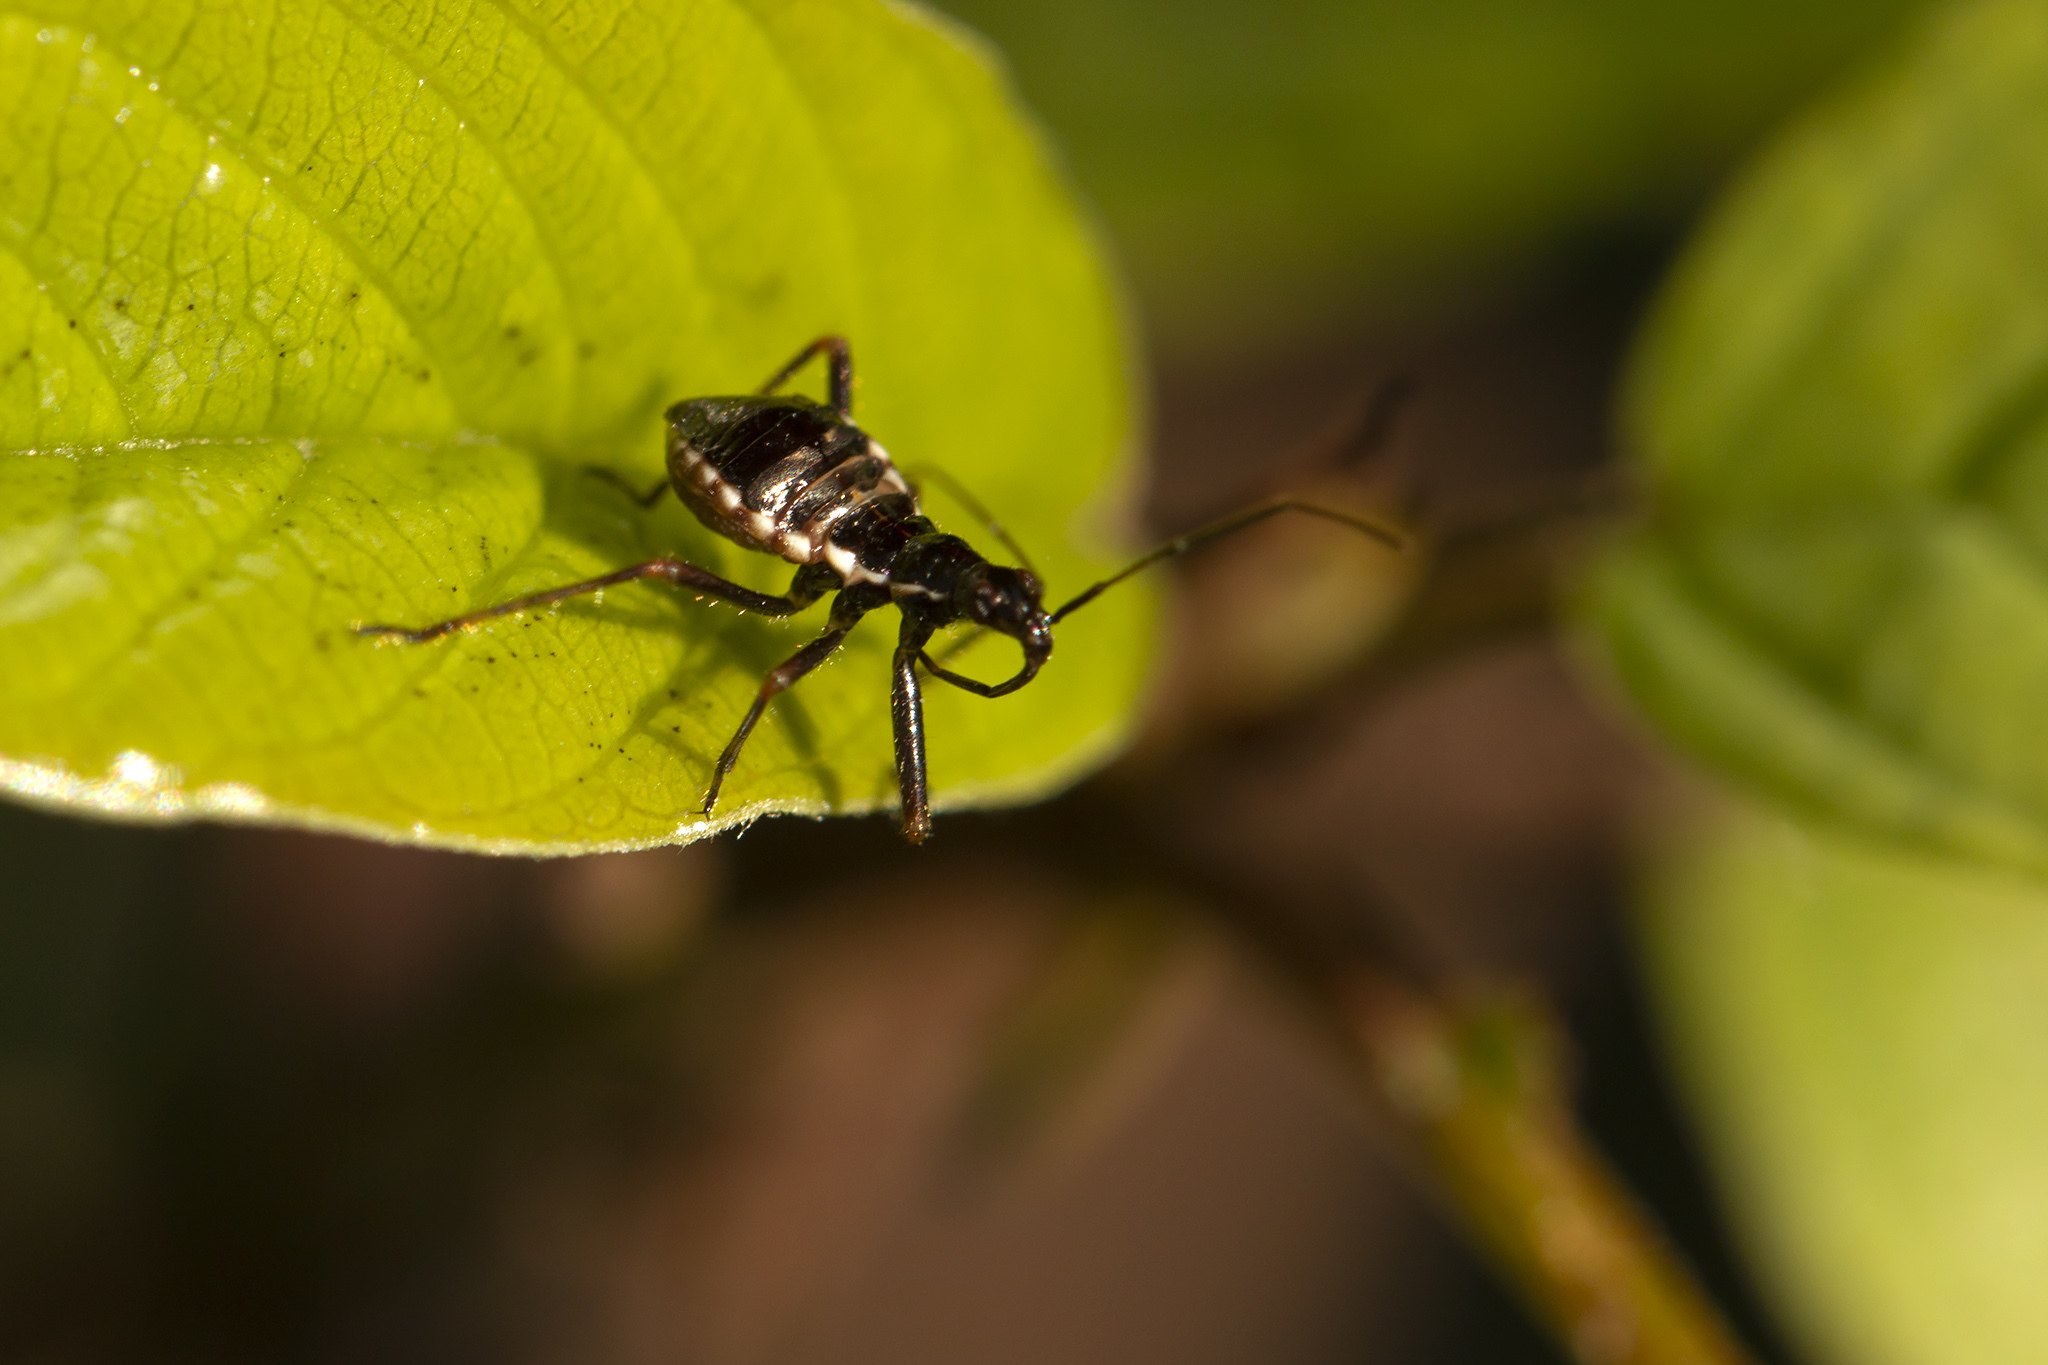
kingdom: Animalia
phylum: Arthropoda
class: Insecta
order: Hemiptera
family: Nabidae
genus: Himacerus
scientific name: Himacerus apterus
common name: Tree damsel bug
